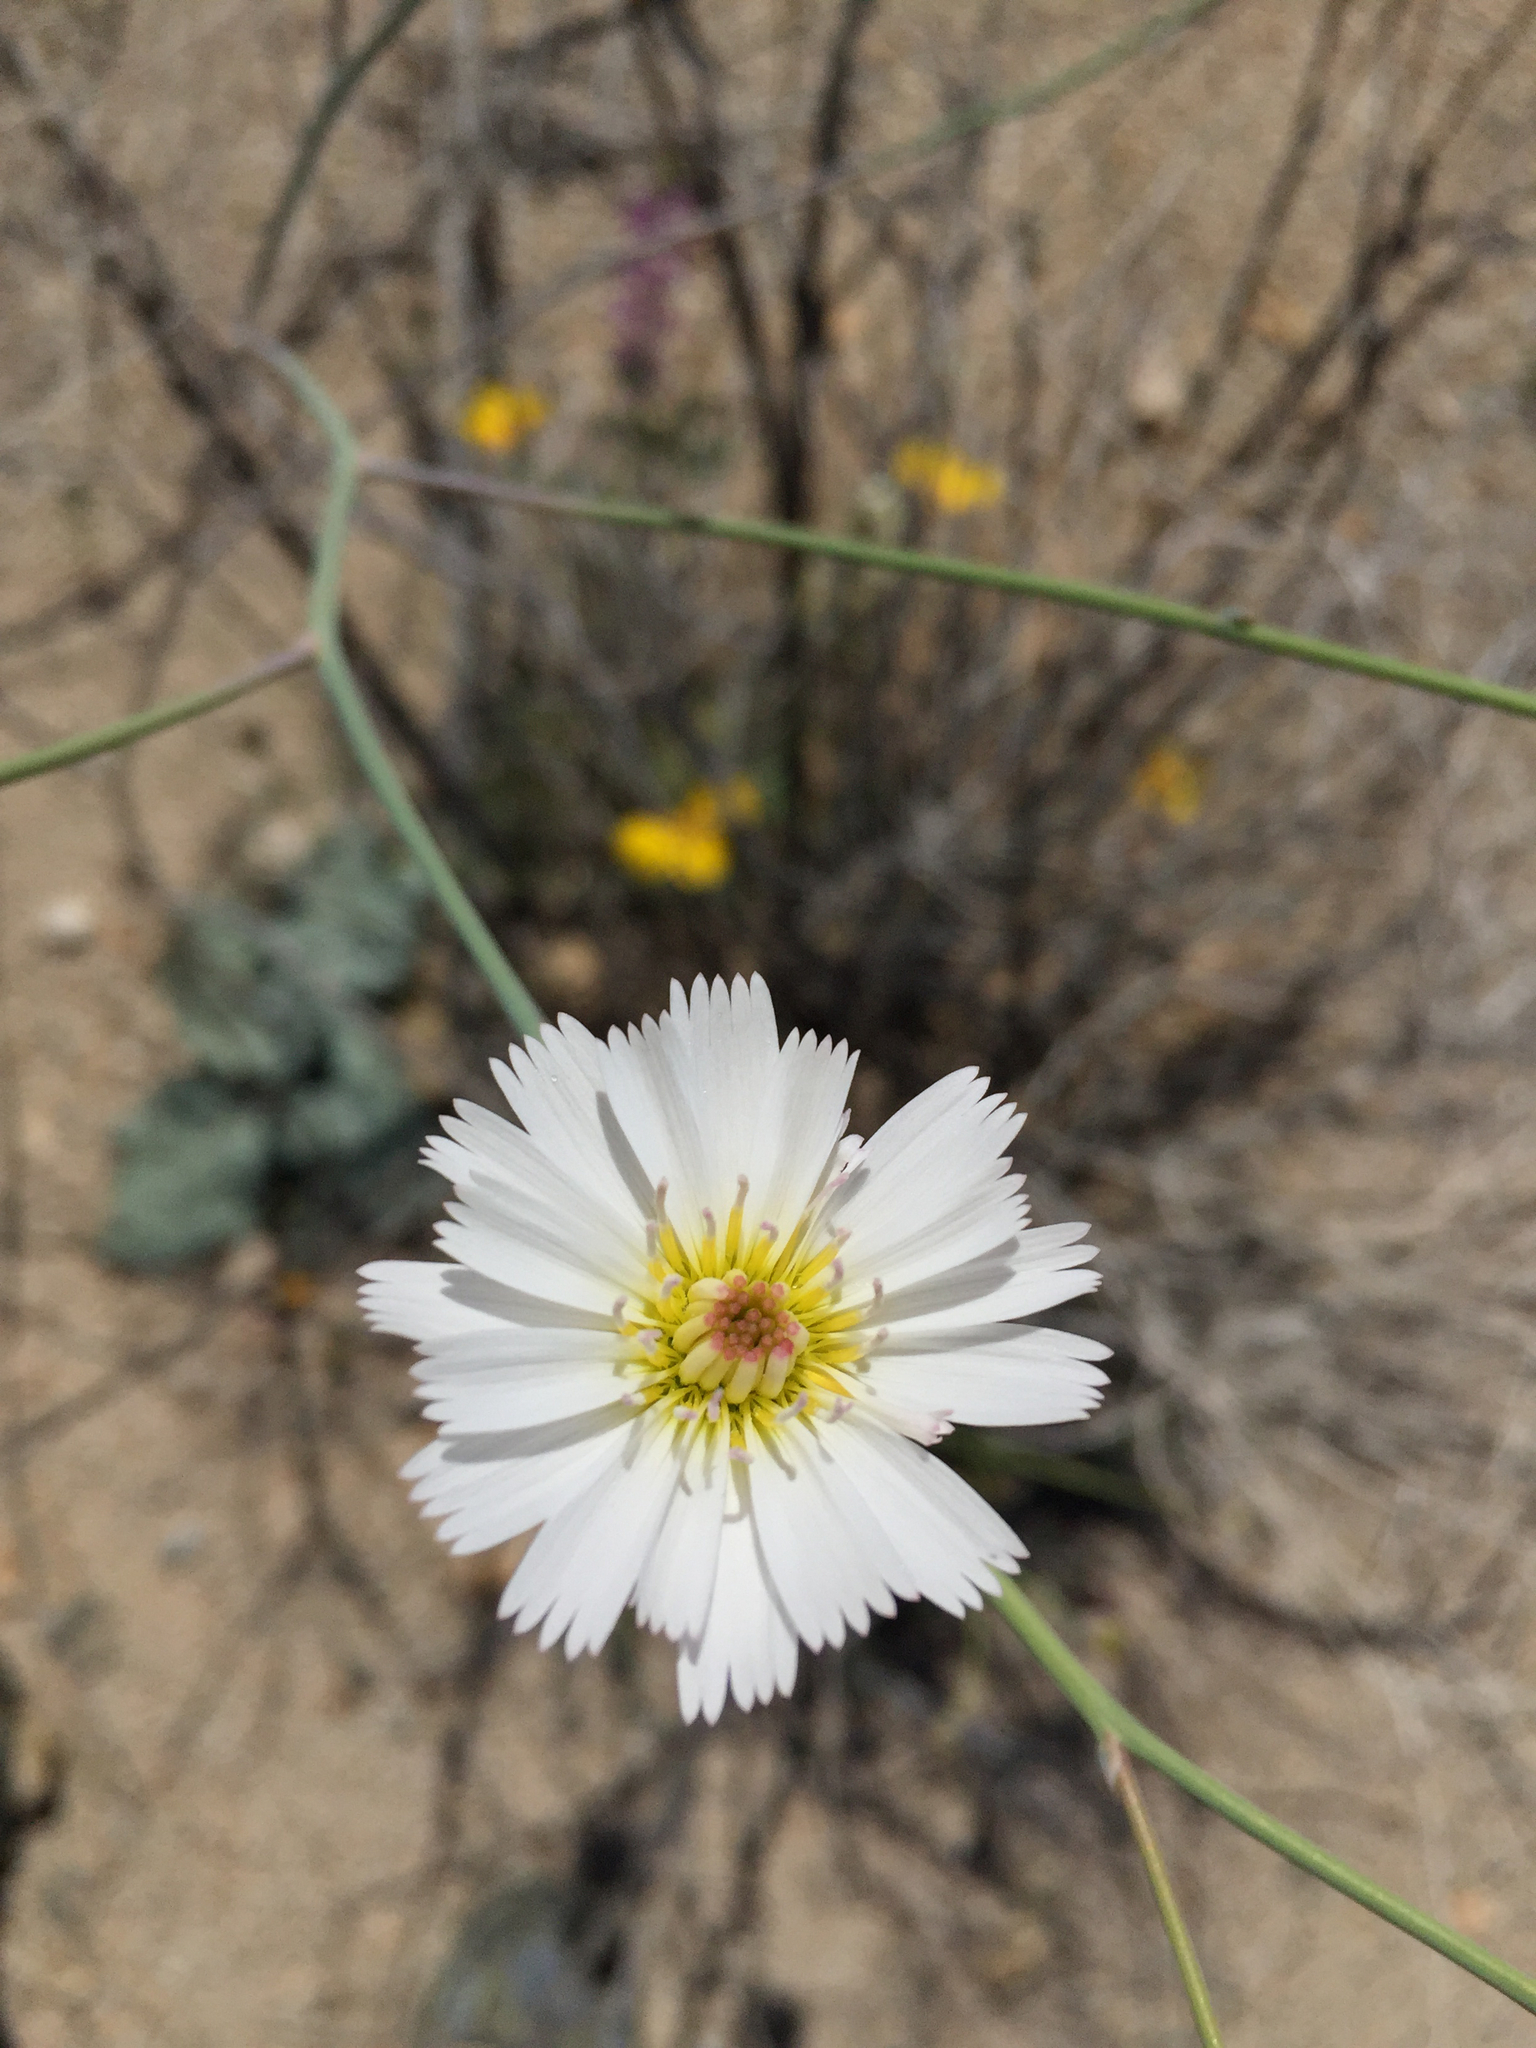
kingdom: Plantae
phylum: Tracheophyta
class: Magnoliopsida
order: Asterales
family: Asteraceae
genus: Atrichoseris
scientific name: Atrichoseris platyphylla
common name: Tobaccoweed
